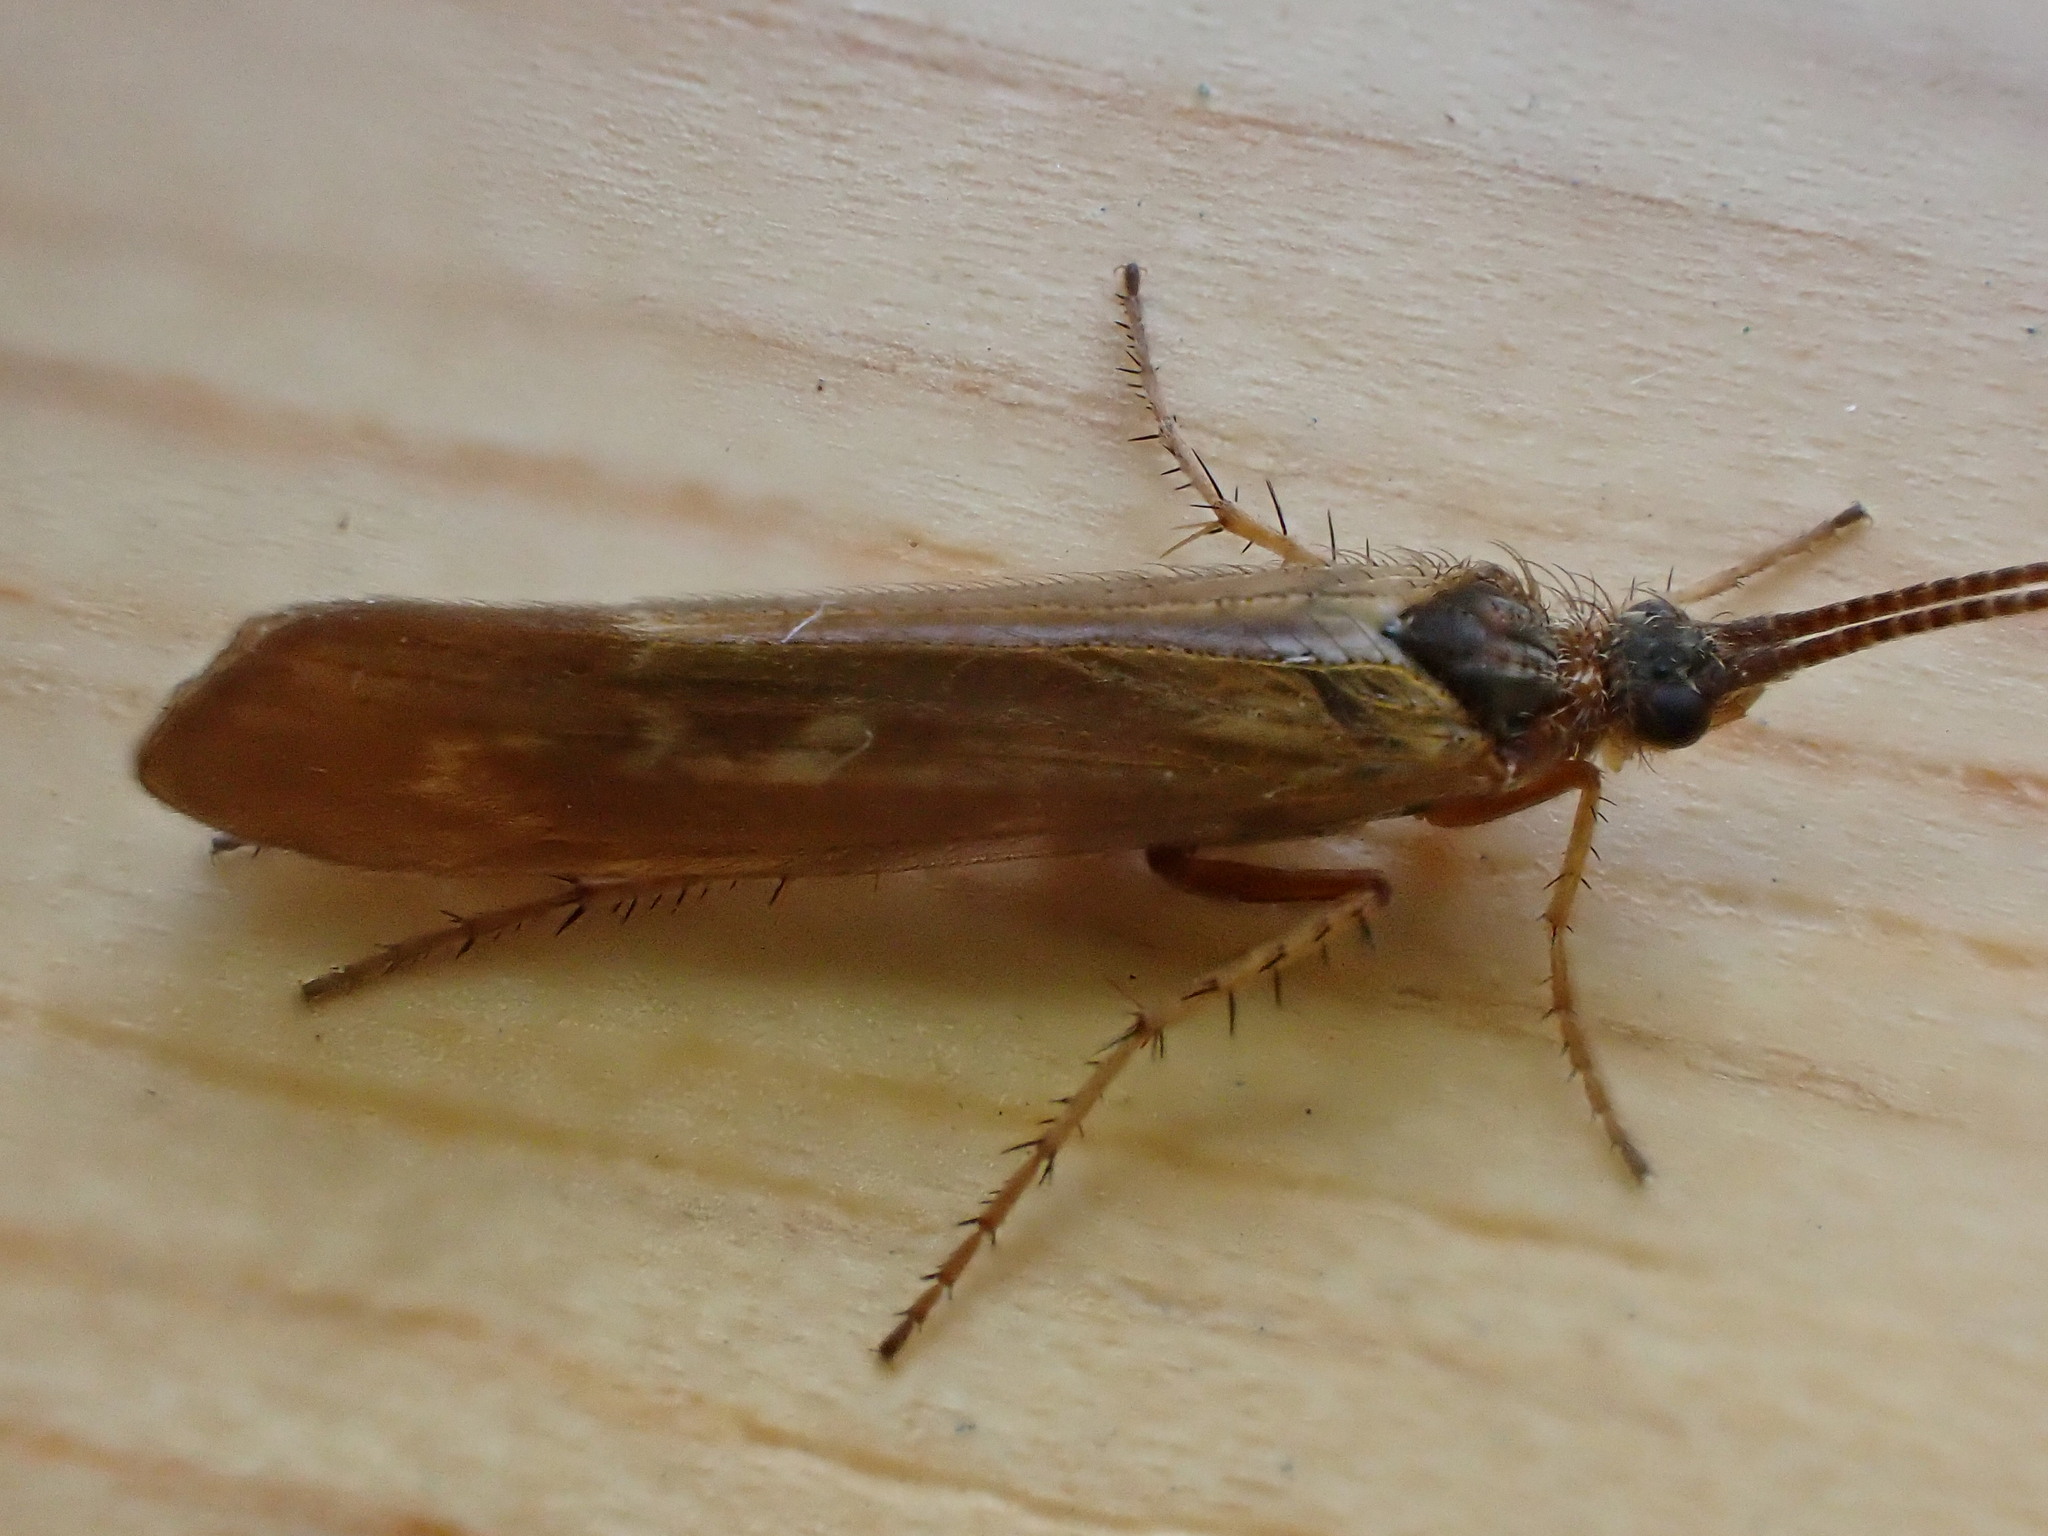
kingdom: Animalia
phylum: Arthropoda
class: Insecta
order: Trichoptera
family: Limnephilidae
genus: Limnephilus
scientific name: Limnephilus auricula
